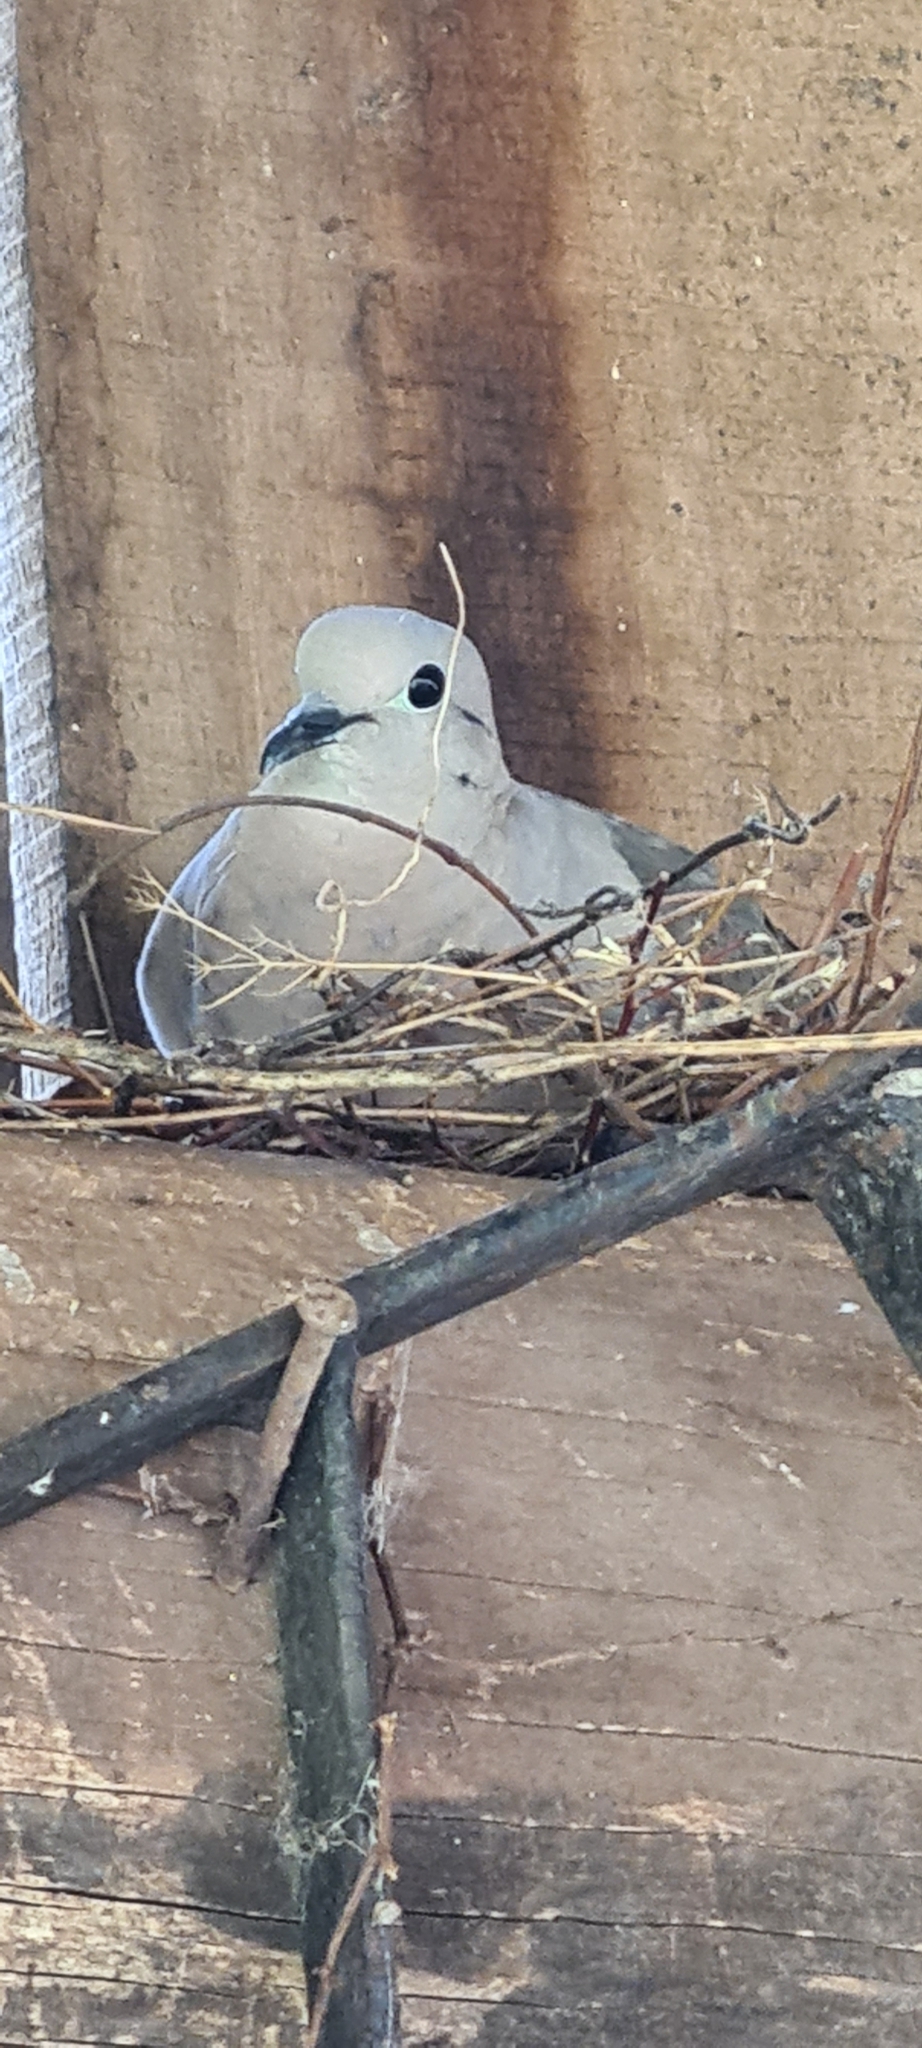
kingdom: Animalia
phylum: Chordata
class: Aves
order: Columbiformes
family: Columbidae
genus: Zenaida
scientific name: Zenaida auriculata
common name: Eared dove
